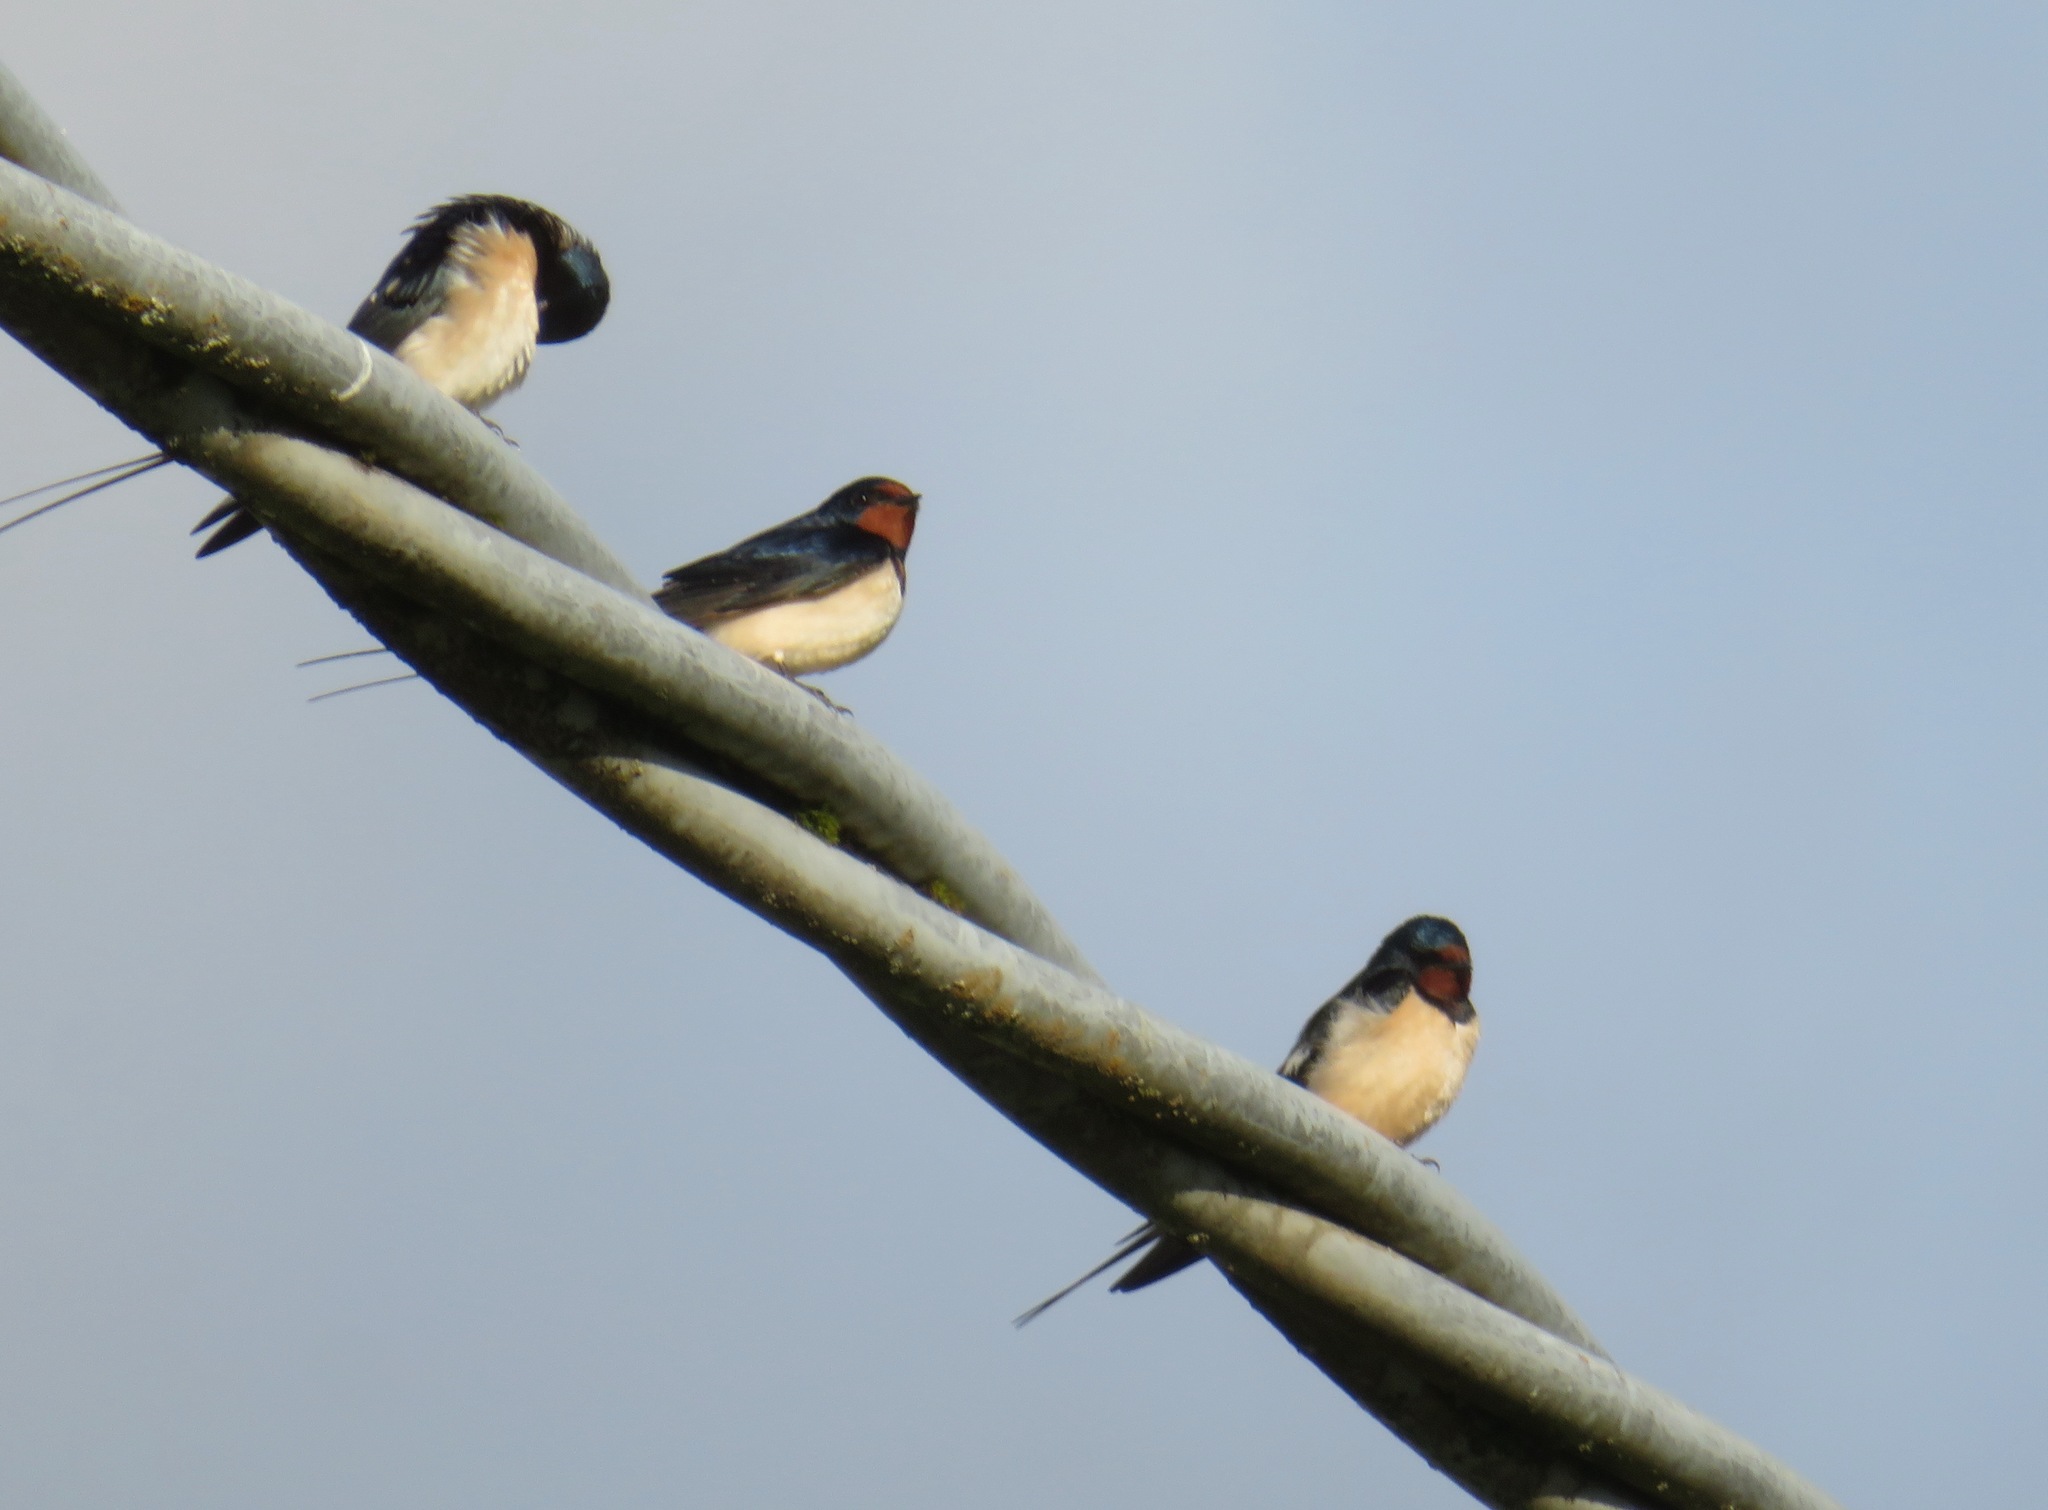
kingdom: Animalia
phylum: Chordata
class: Aves
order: Passeriformes
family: Hirundinidae
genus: Hirundo
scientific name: Hirundo rustica
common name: Barn swallow
